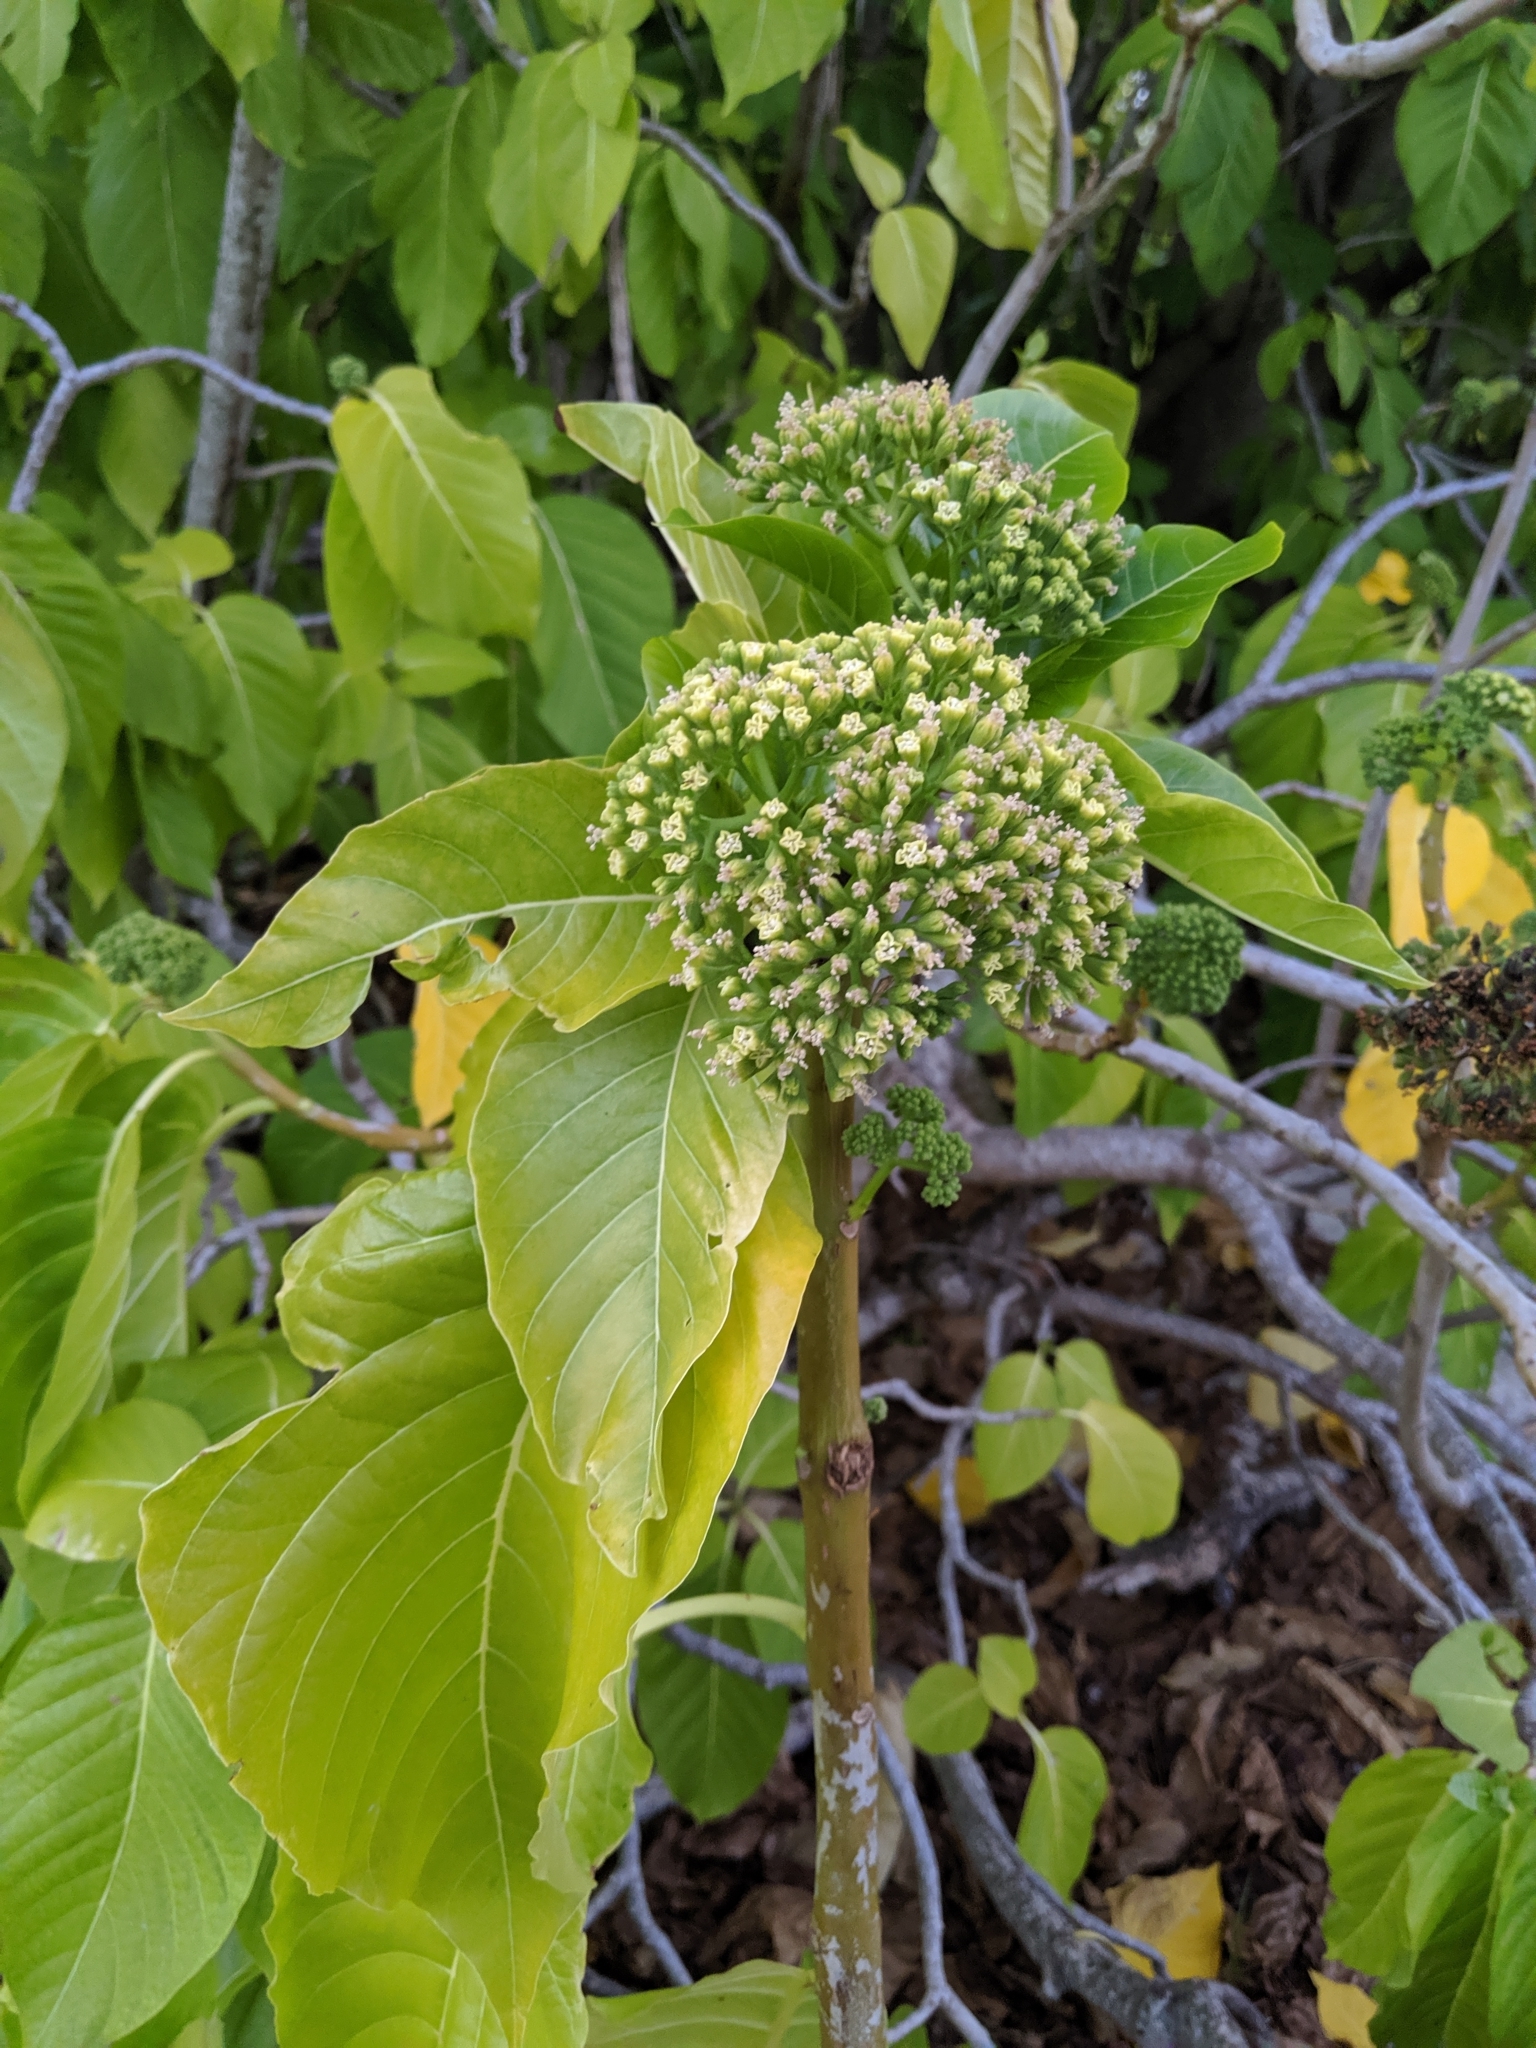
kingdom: Plantae
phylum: Tracheophyta
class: Magnoliopsida
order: Caryophyllales
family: Nyctaginaceae
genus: Ceodes
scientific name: Ceodes
